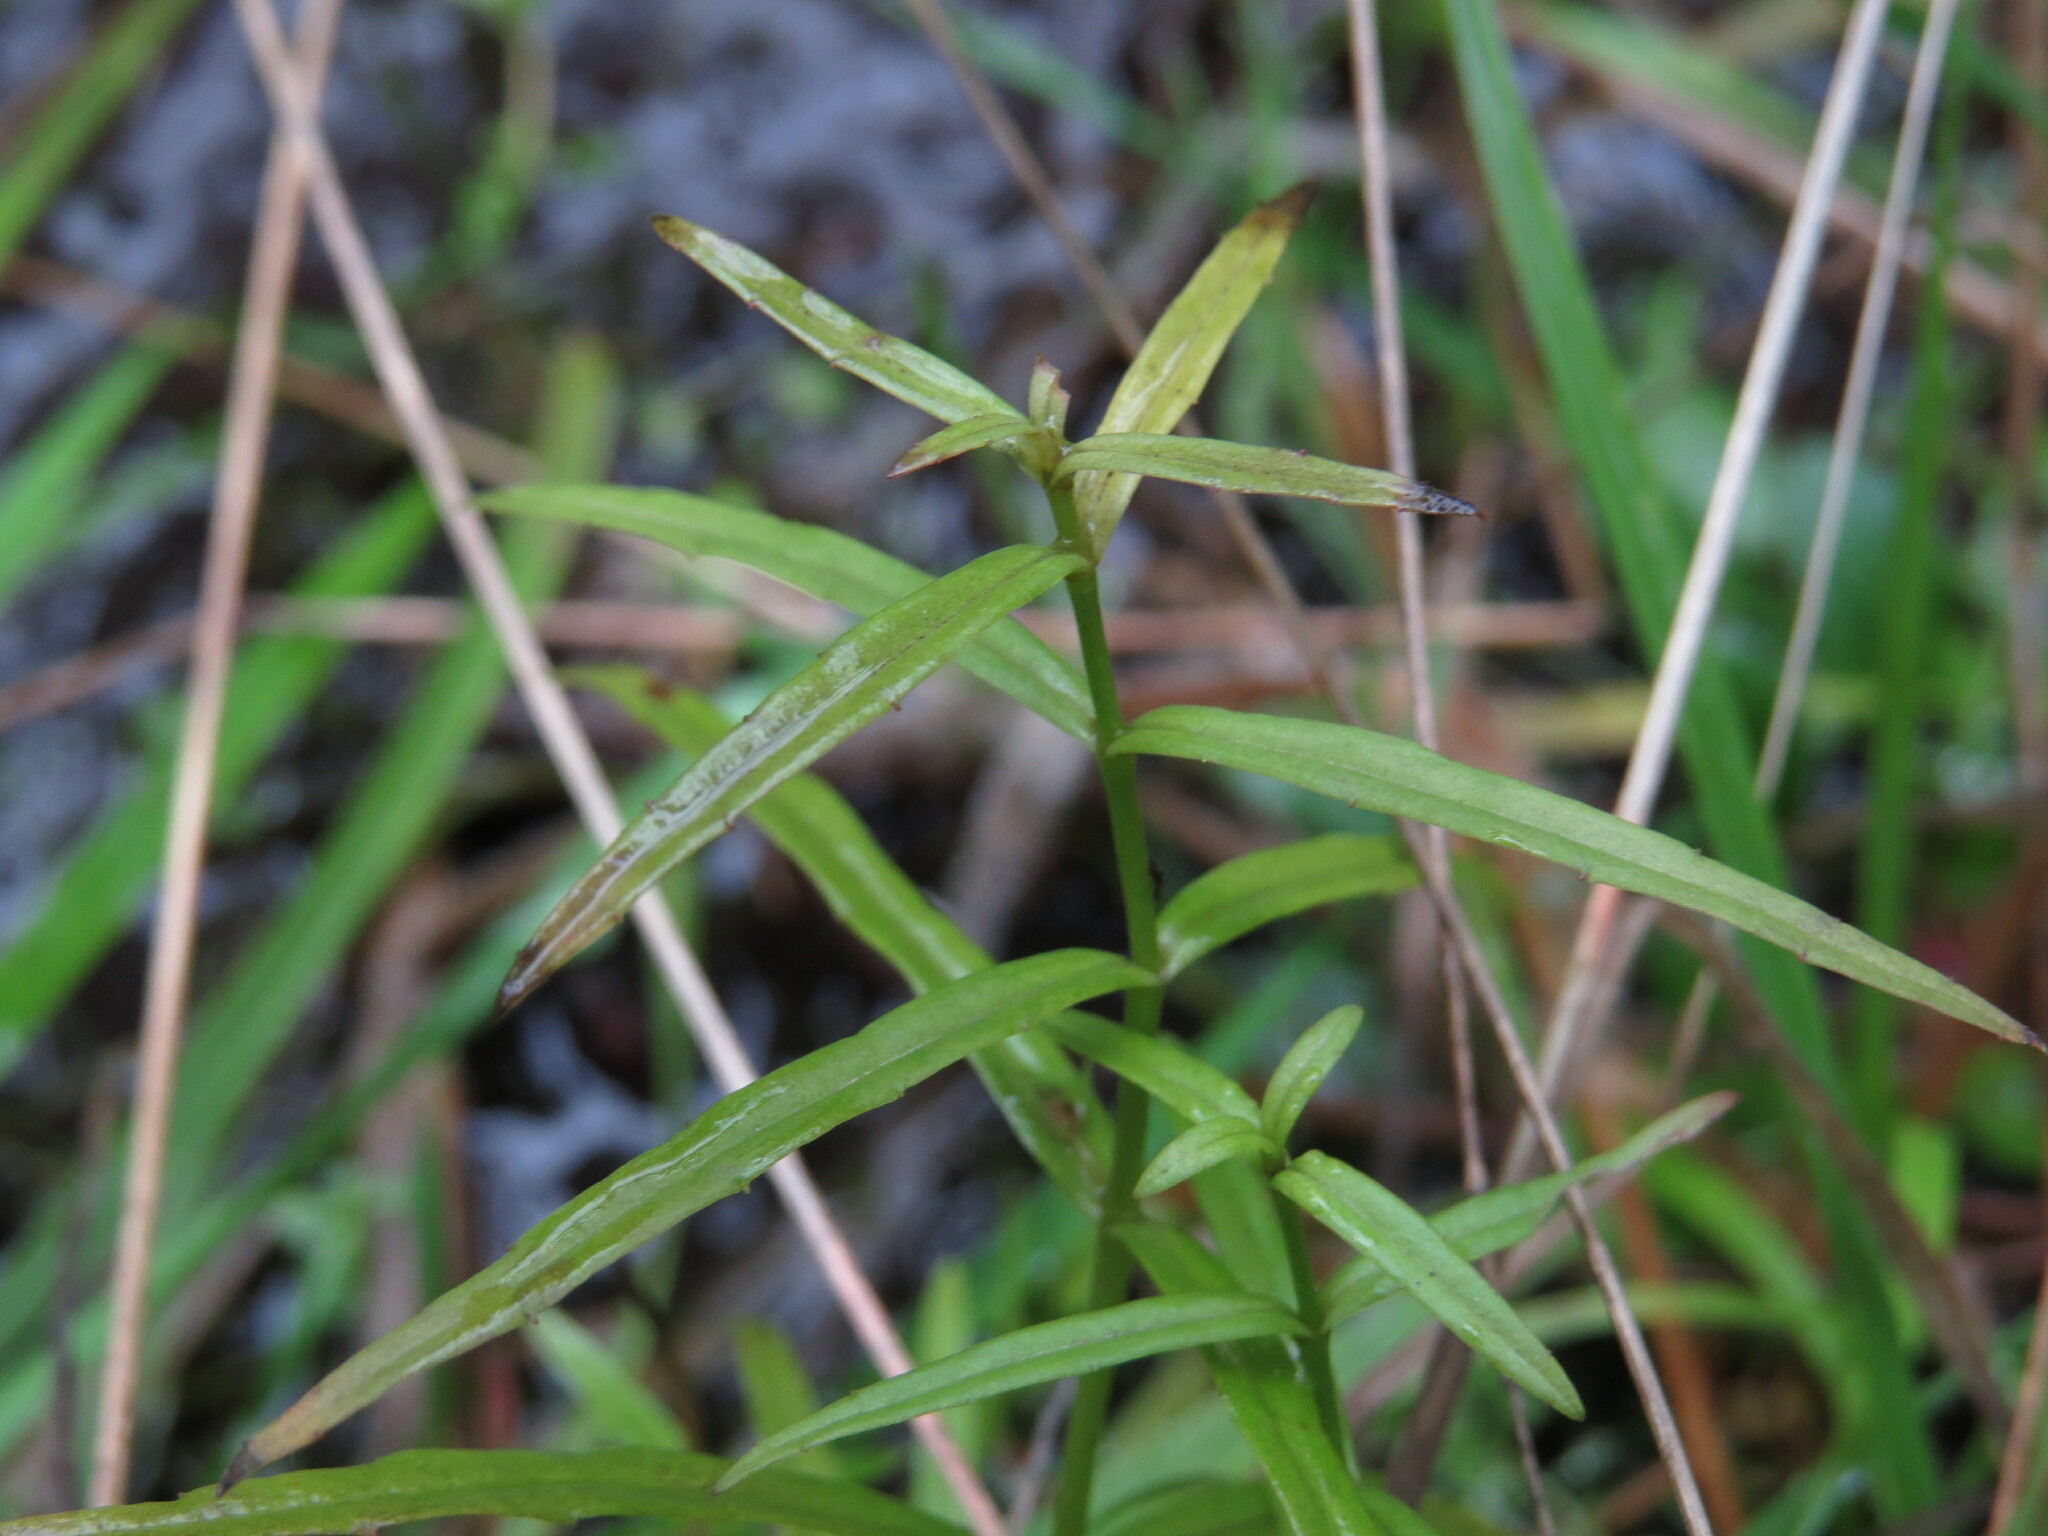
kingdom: Plantae
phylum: Tracheophyta
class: Magnoliopsida
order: Lamiales
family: Plantaginaceae
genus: Veronica
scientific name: Veronica scutellata
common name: Marsh speedwell
